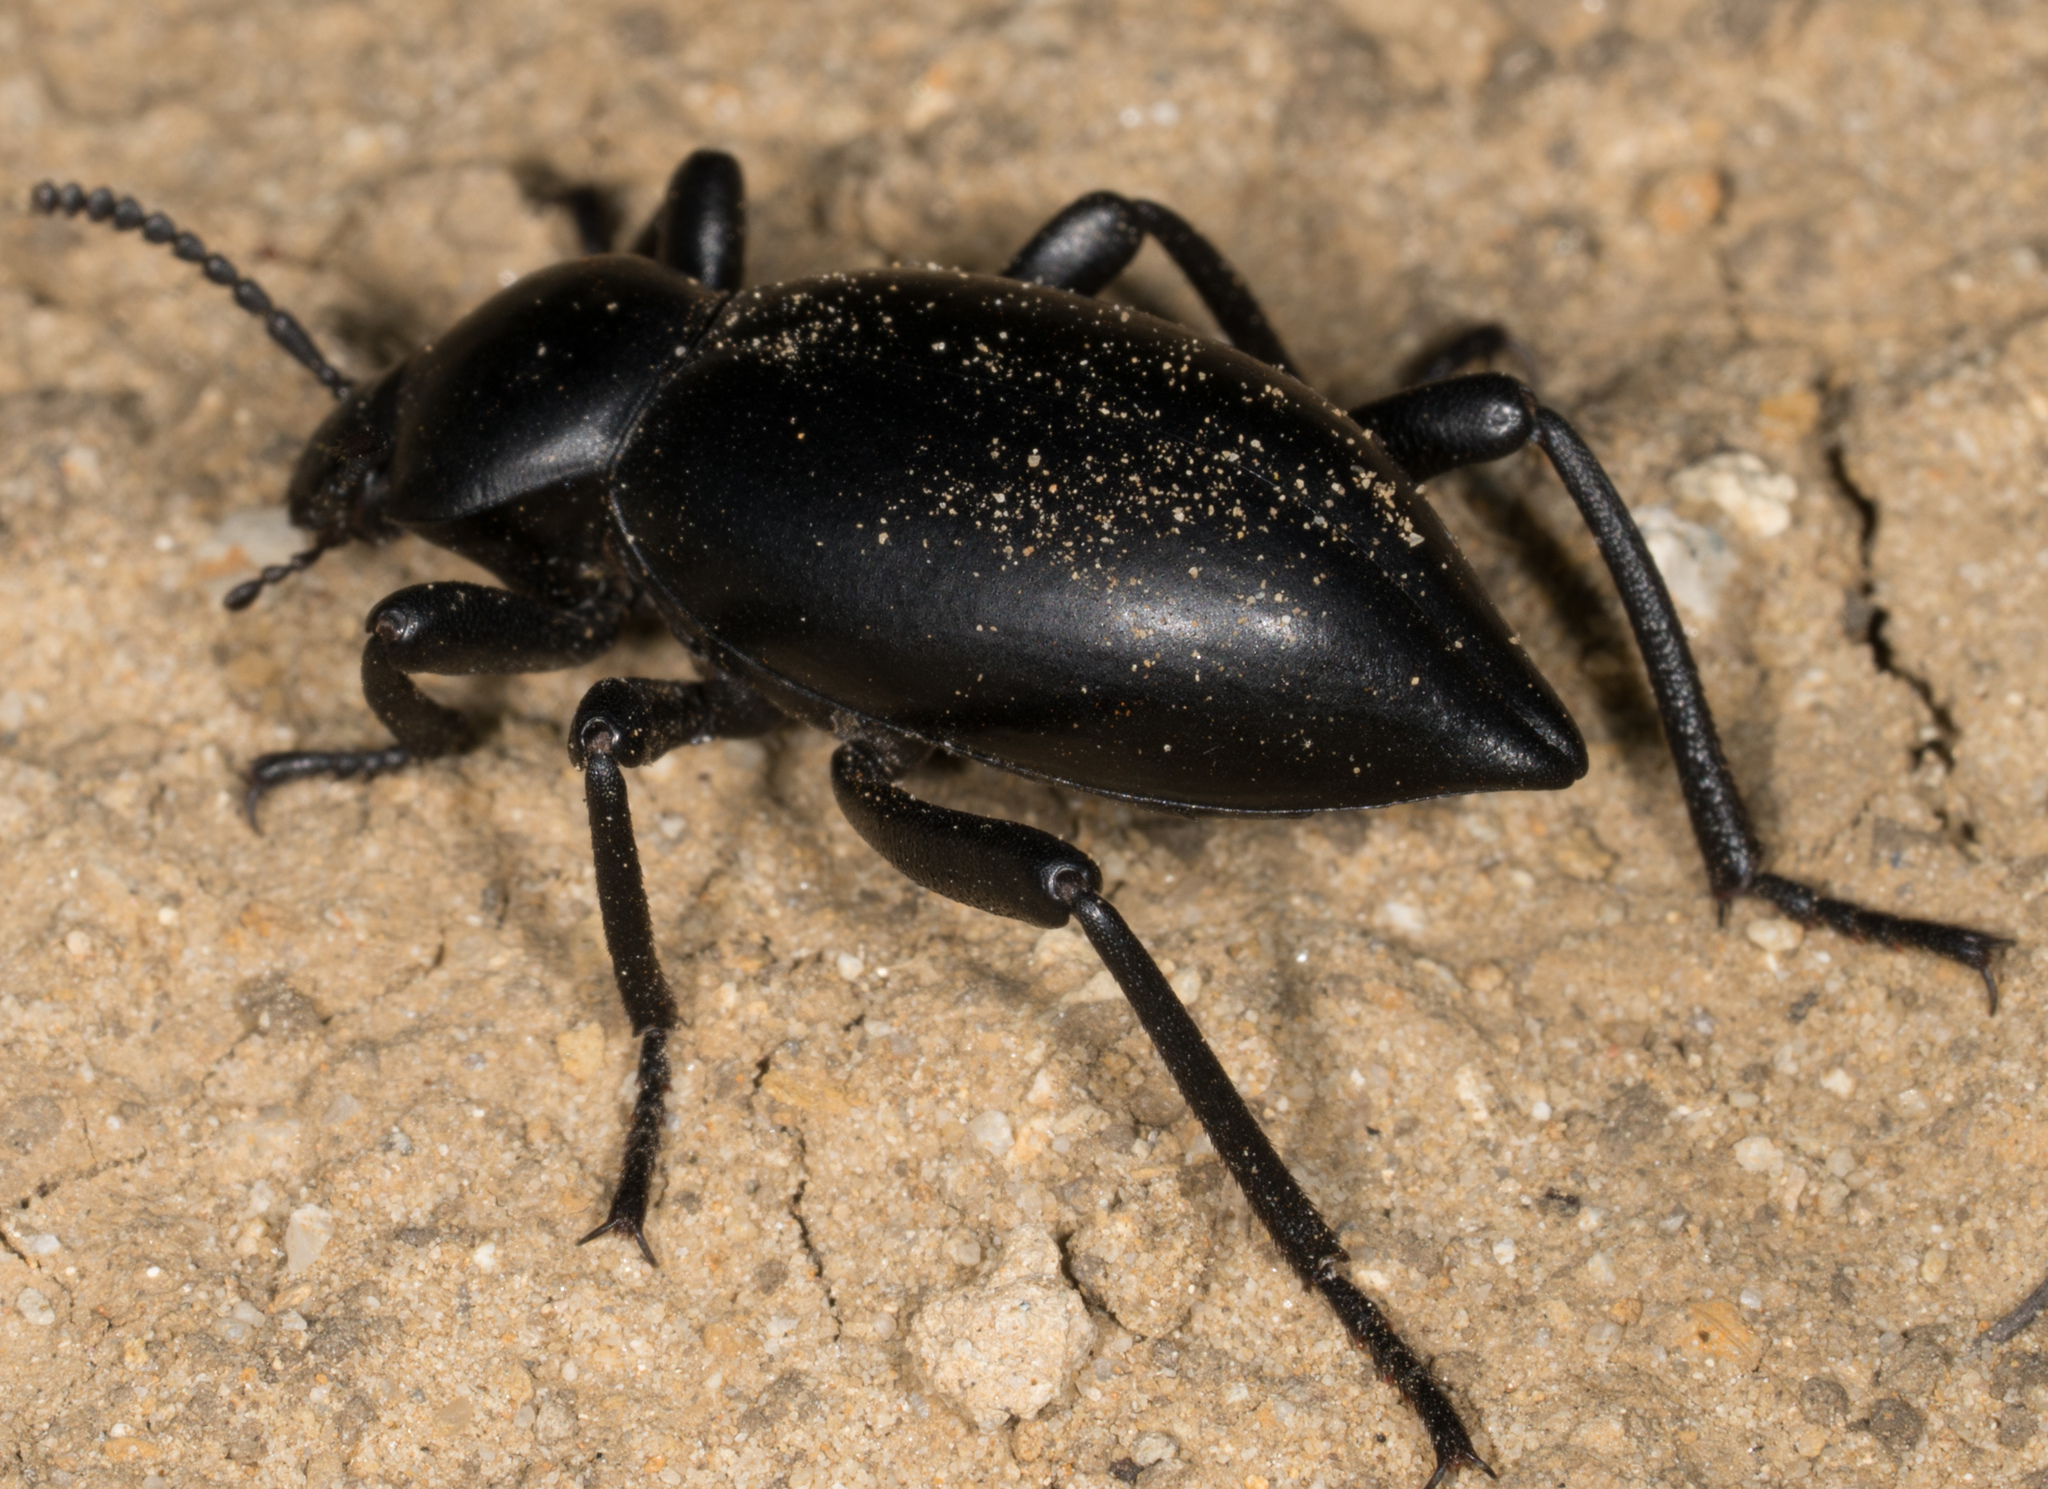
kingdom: Animalia
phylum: Arthropoda
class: Insecta
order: Coleoptera
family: Tenebrionidae
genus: Eleodes
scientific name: Eleodes acuticauda
